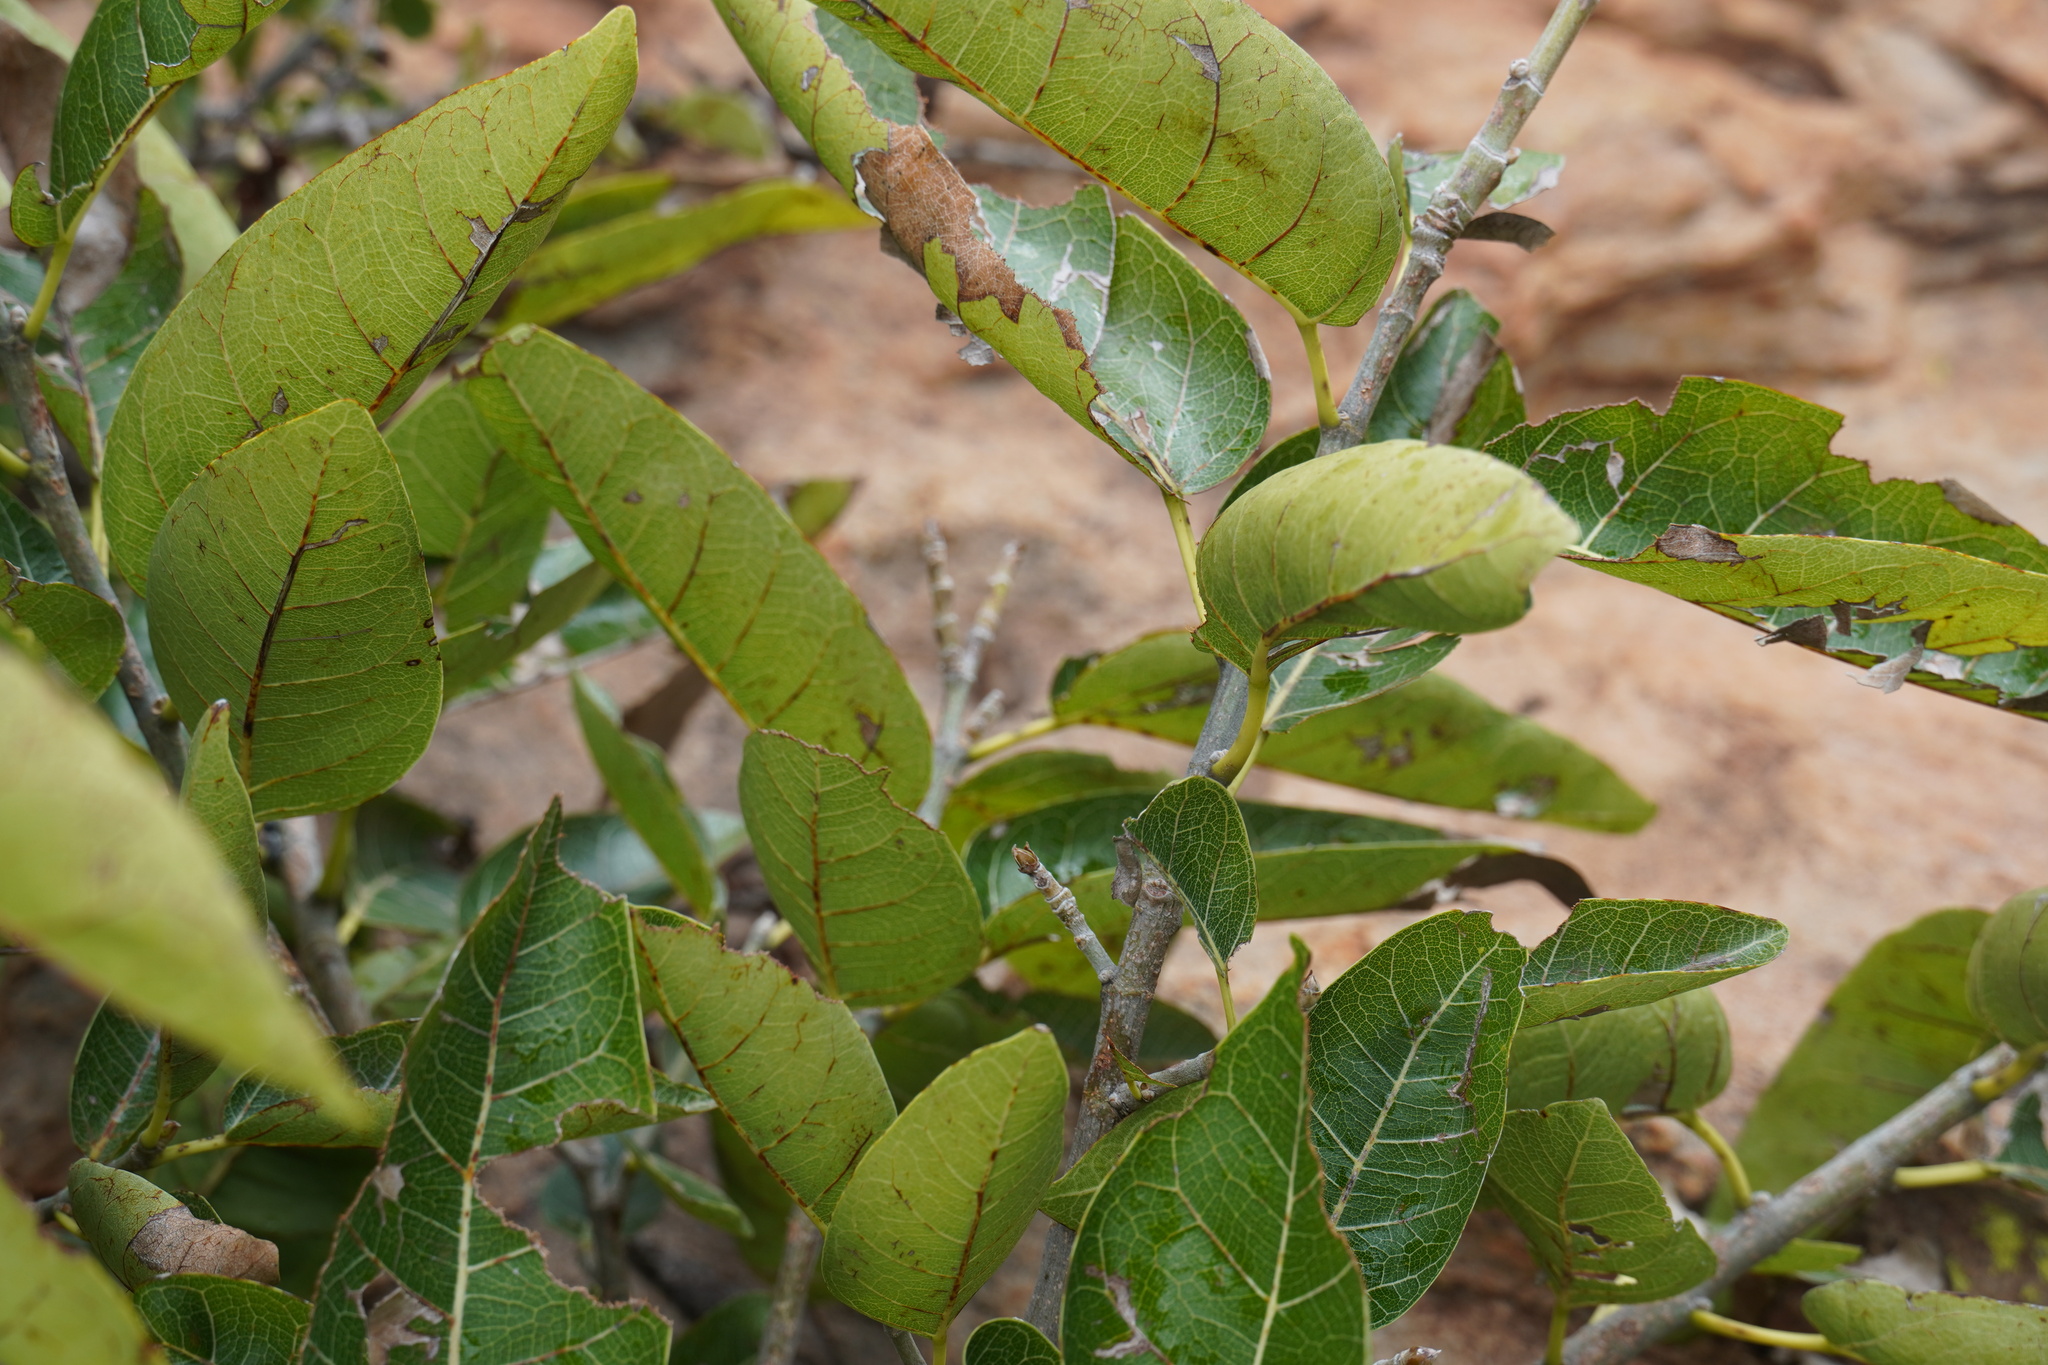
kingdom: Plantae
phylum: Tracheophyta
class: Magnoliopsida
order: Rosales
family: Moraceae
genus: Ficus
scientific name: Ficus ingens
